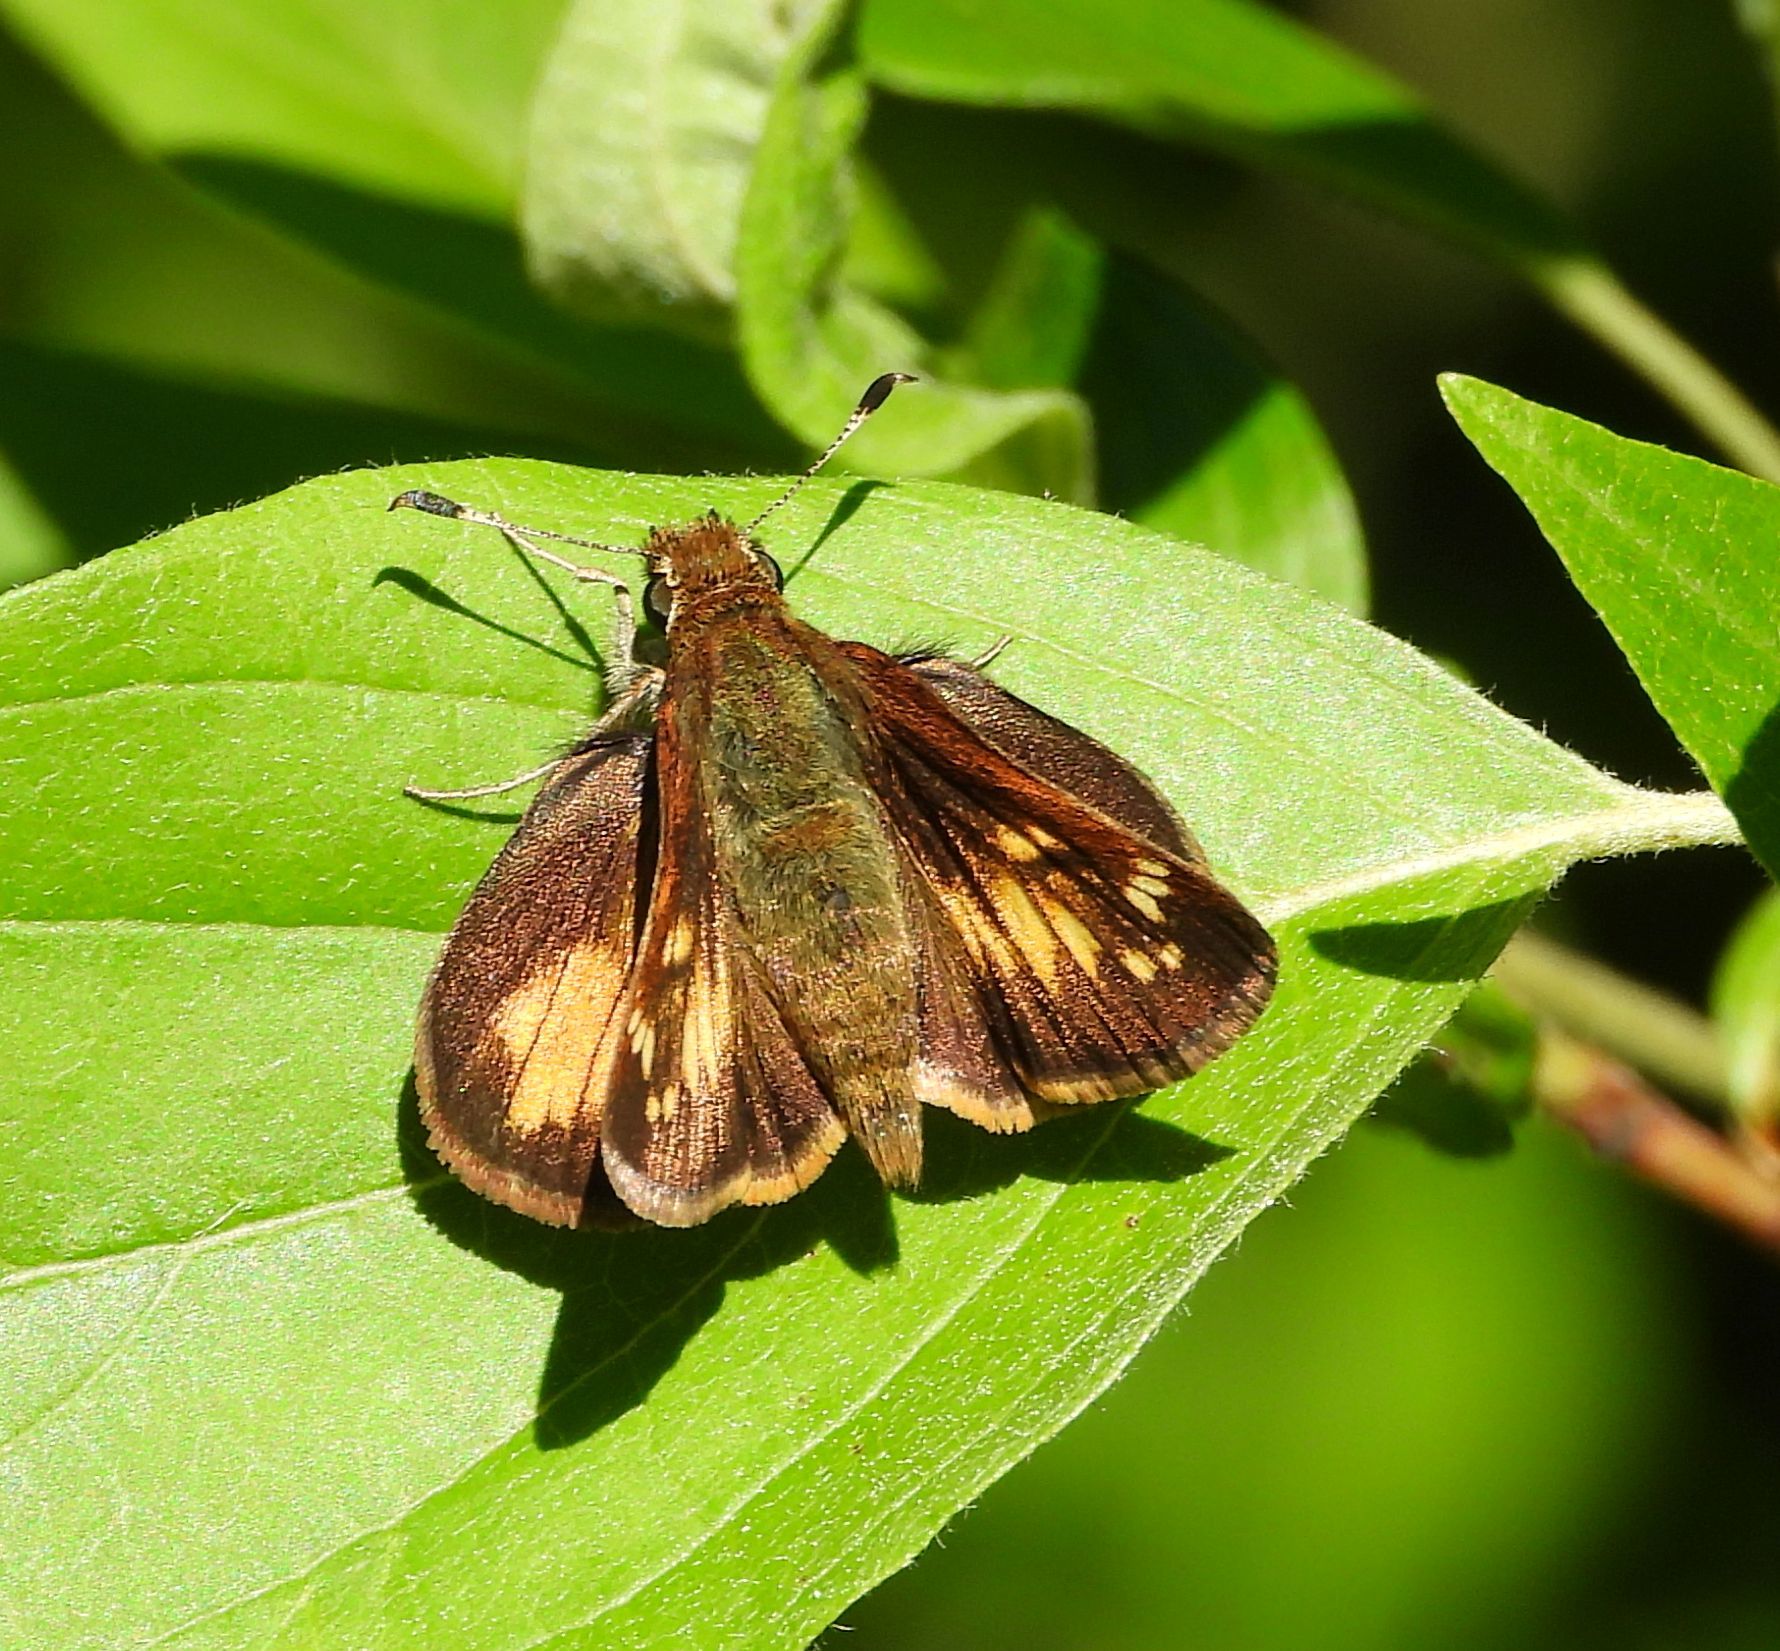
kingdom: Animalia
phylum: Arthropoda
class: Insecta
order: Lepidoptera
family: Hesperiidae
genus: Lon
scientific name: Lon hobomok
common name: Hobomok skipper
